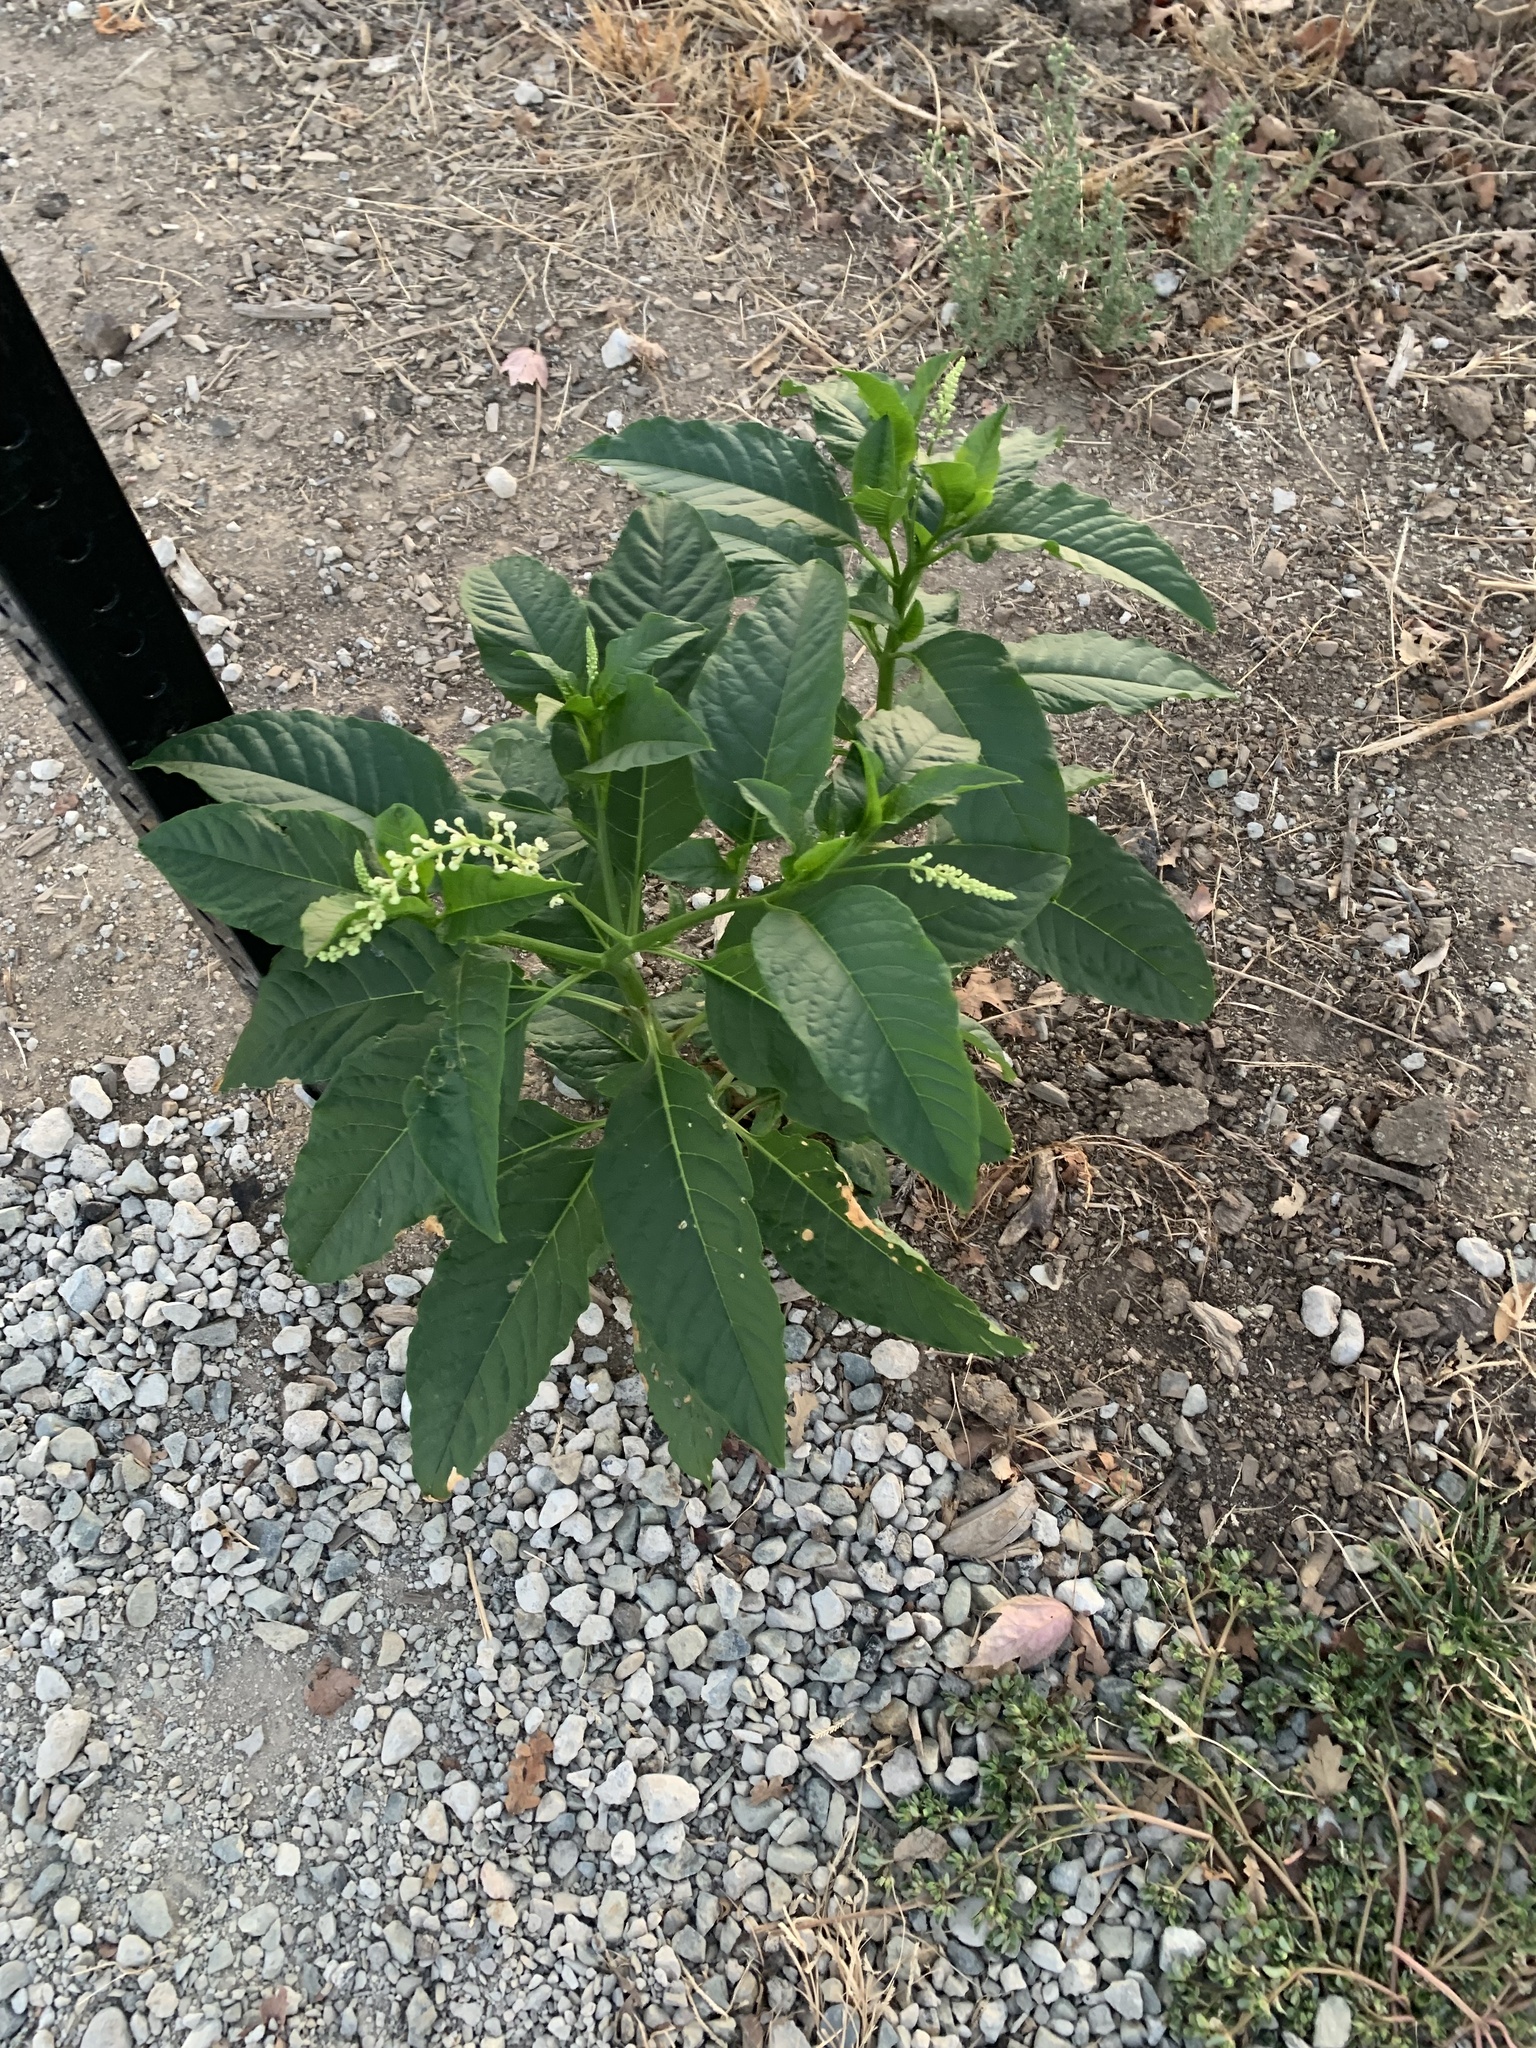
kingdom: Plantae
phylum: Tracheophyta
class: Magnoliopsida
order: Caryophyllales
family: Phytolaccaceae
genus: Phytolacca
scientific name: Phytolacca americana
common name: American pokeweed
